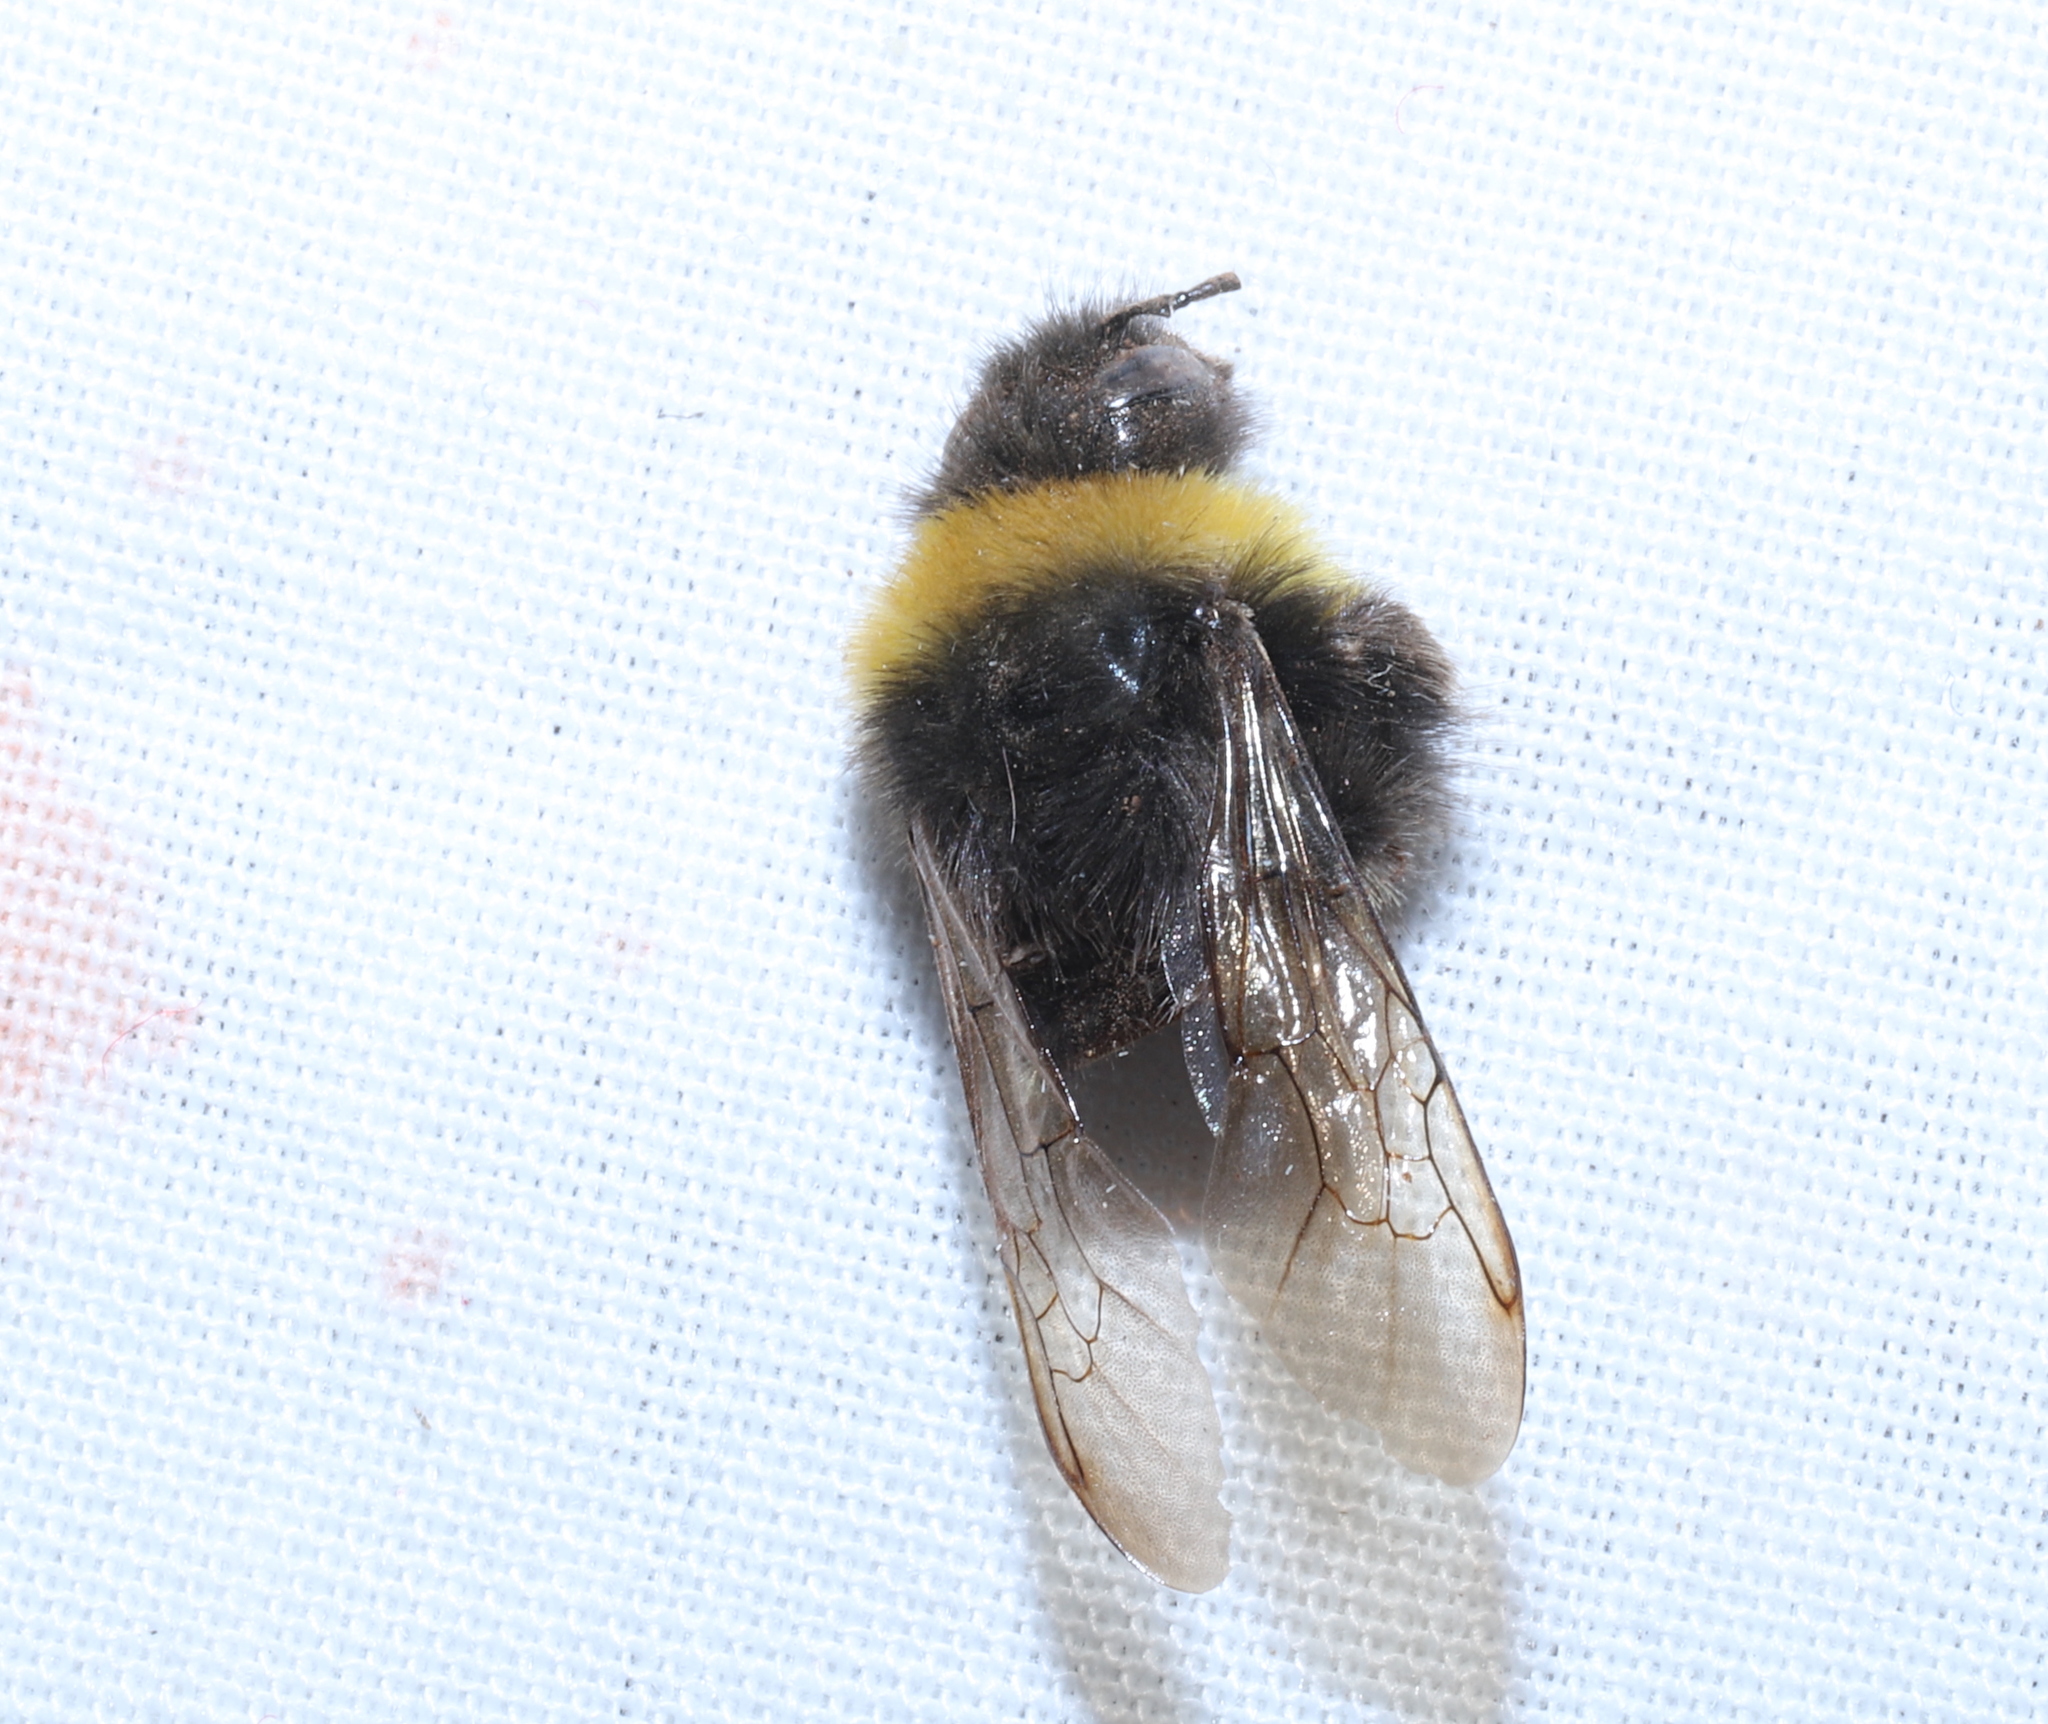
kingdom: Animalia
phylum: Arthropoda
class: Insecta
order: Hymenoptera
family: Apidae
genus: Bombus
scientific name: Bombus terrestris
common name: Buff-tailed bumblebee
